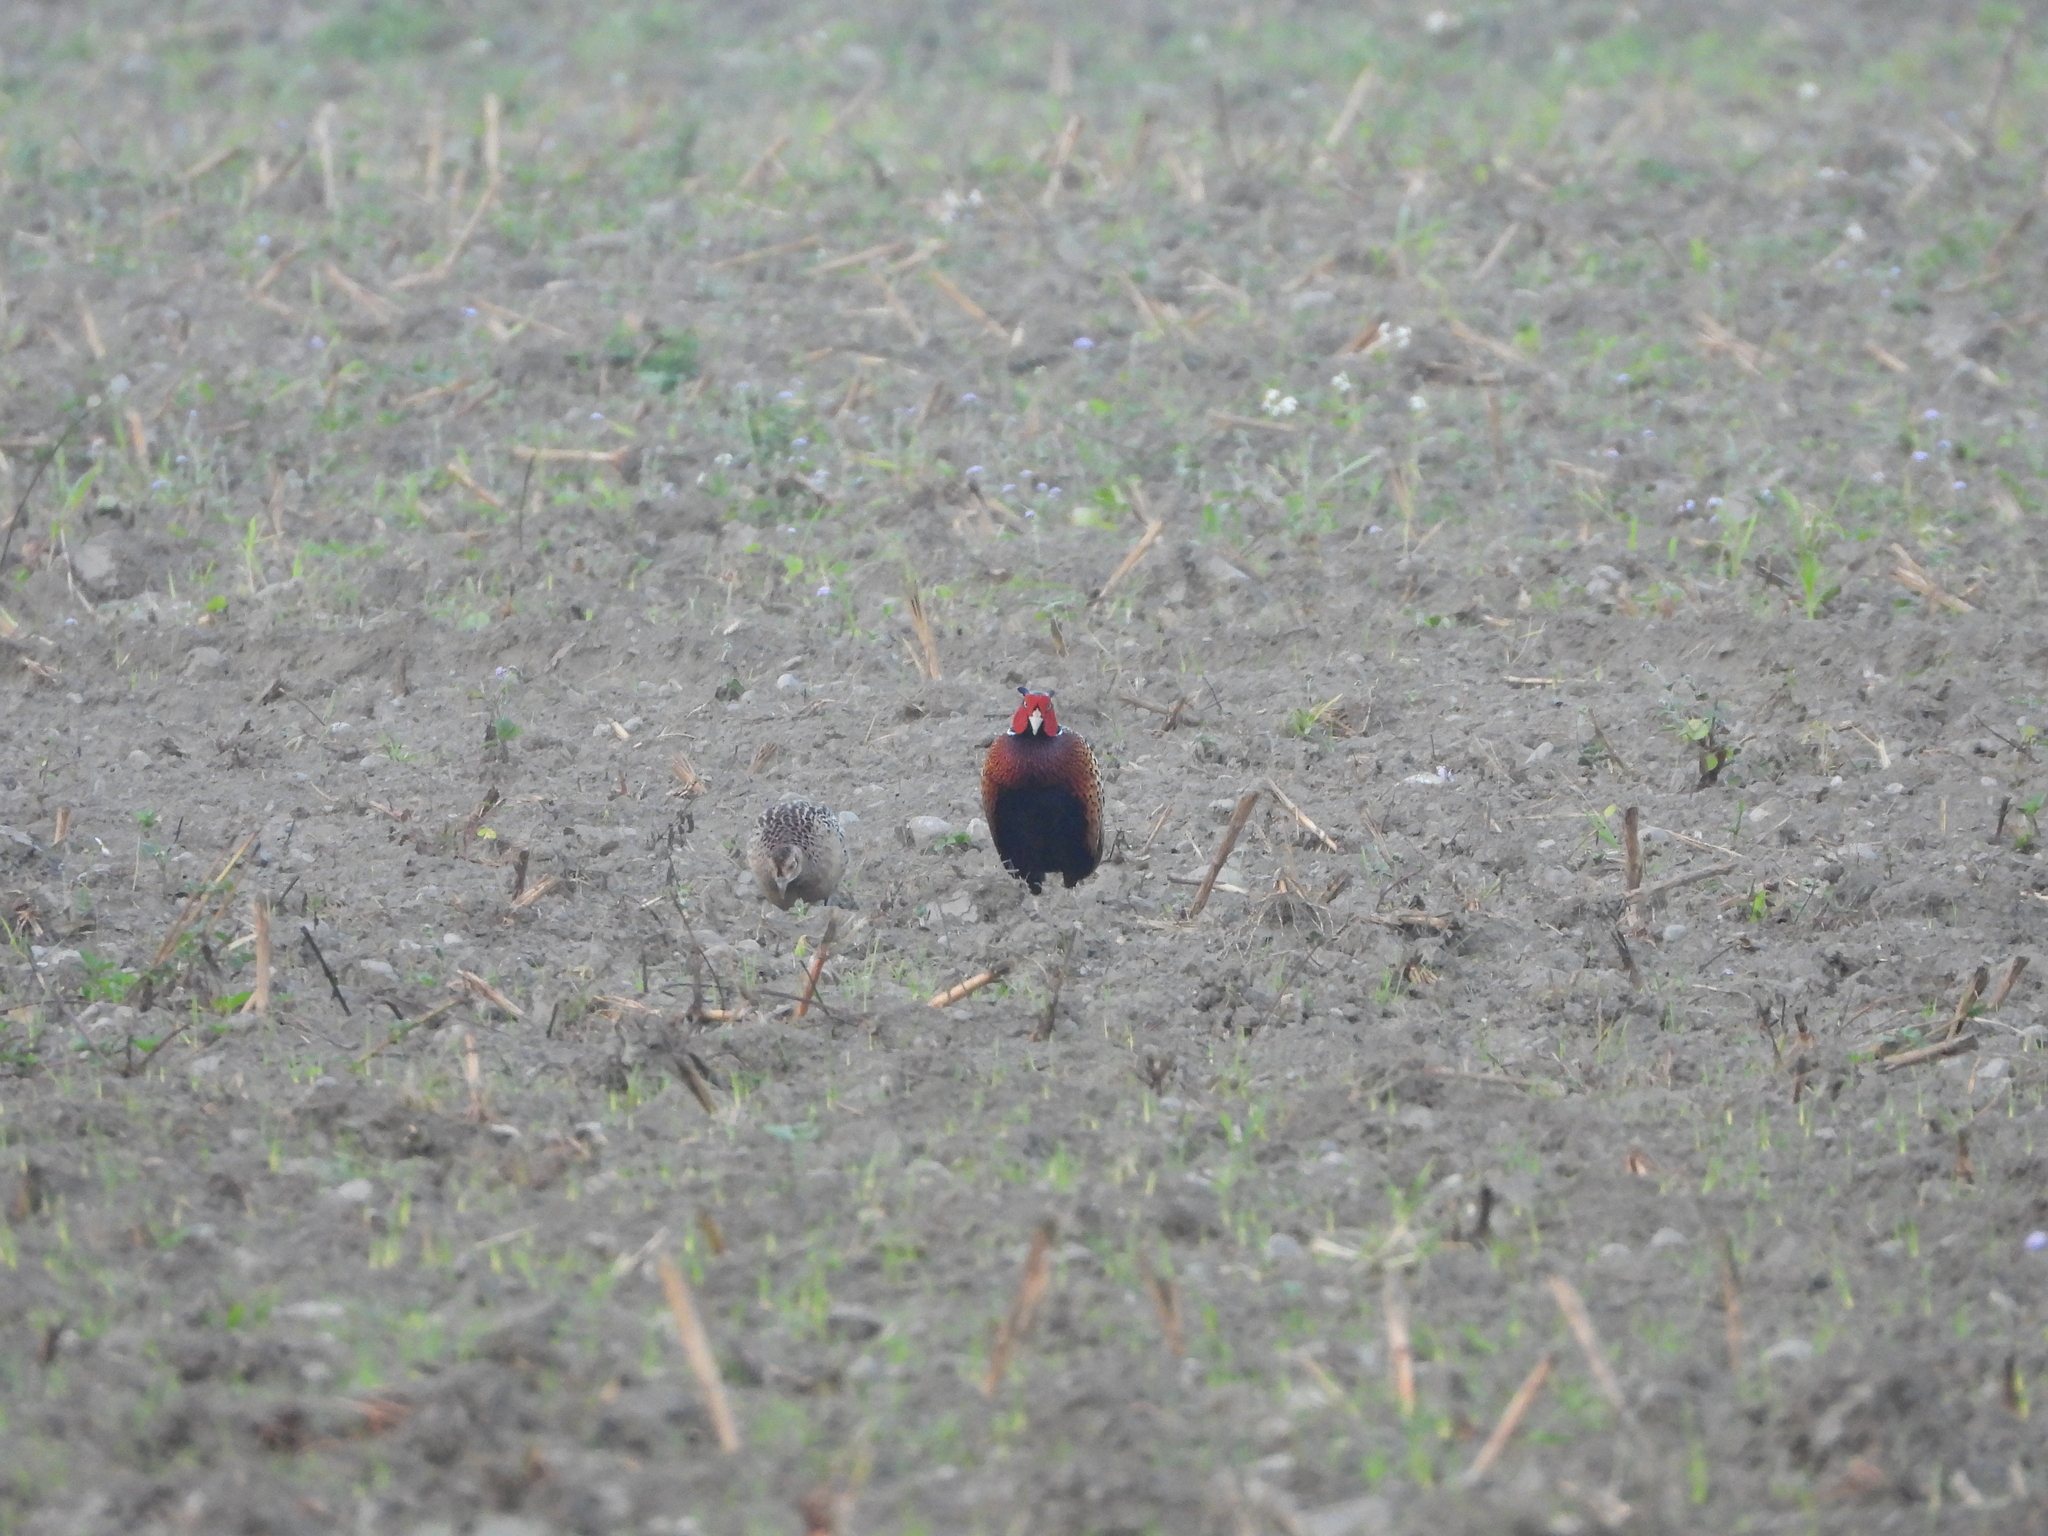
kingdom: Animalia
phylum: Chordata
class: Aves
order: Galliformes
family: Phasianidae
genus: Phasianus
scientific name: Phasianus colchicus
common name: Common pheasant
